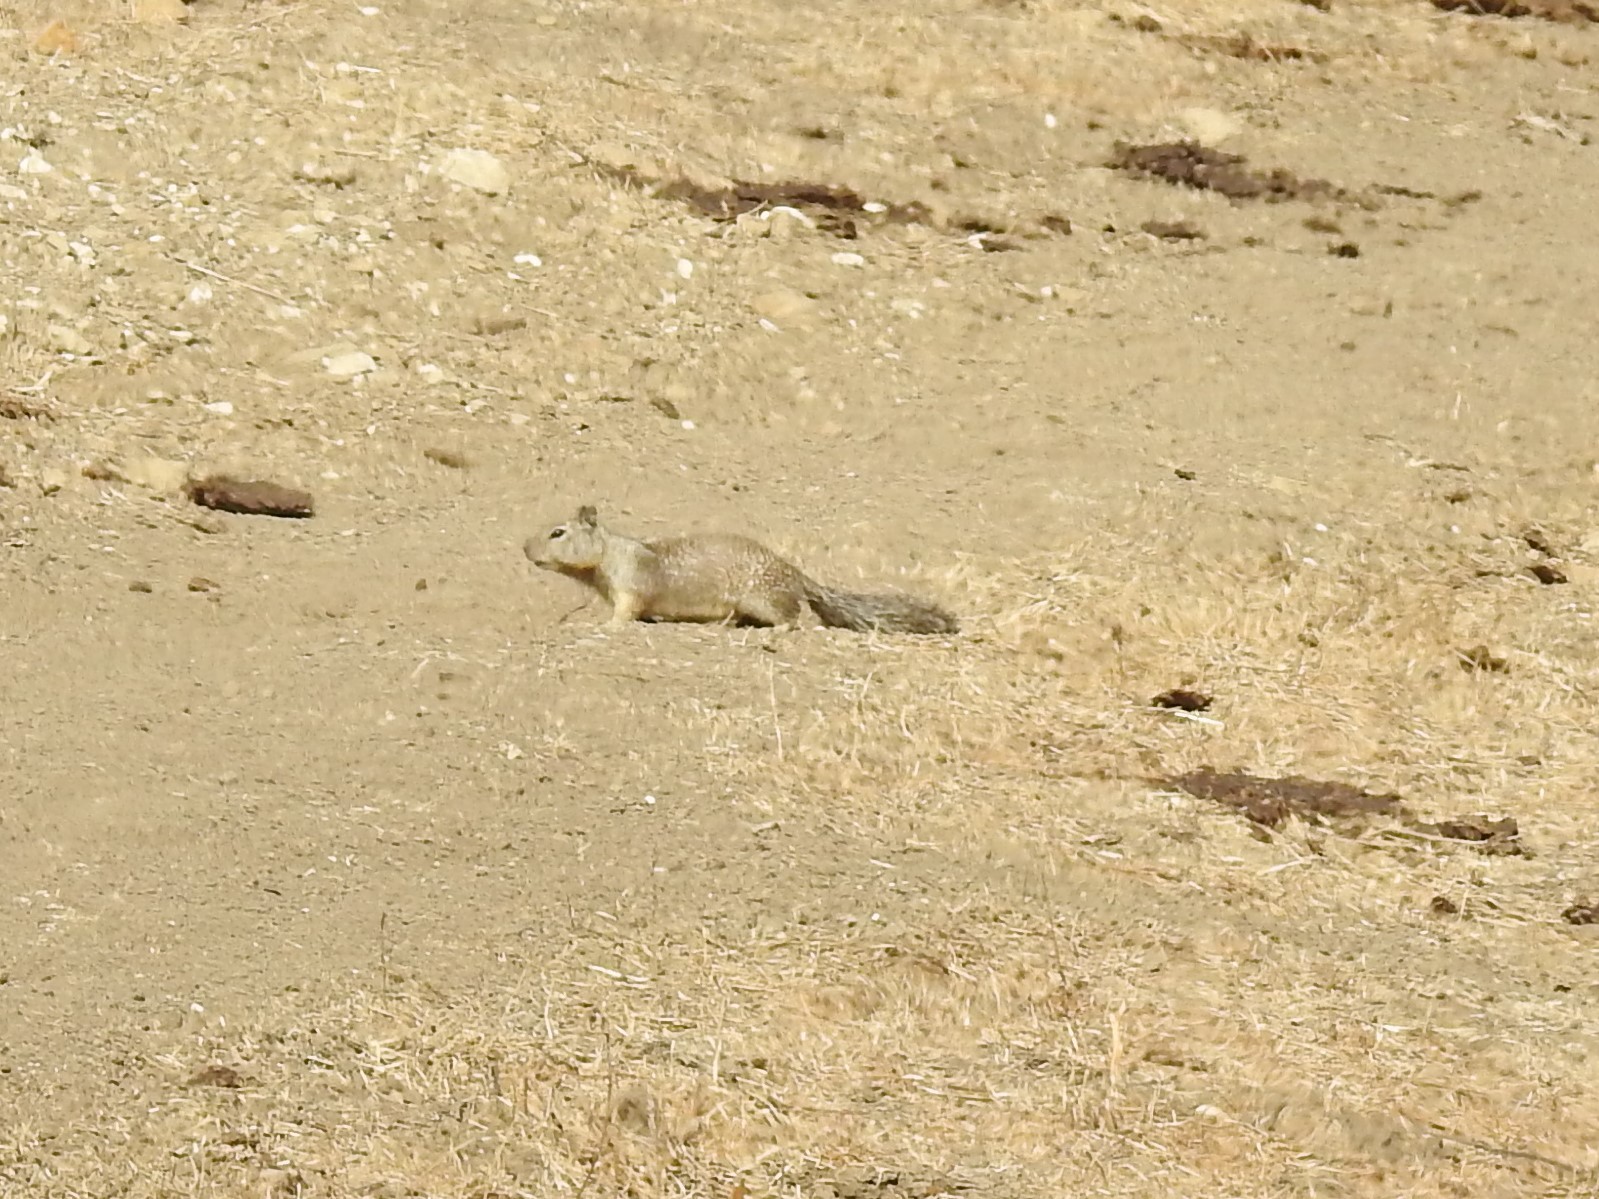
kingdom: Animalia
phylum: Chordata
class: Mammalia
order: Rodentia
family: Sciuridae
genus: Otospermophilus
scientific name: Otospermophilus beecheyi
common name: California ground squirrel
